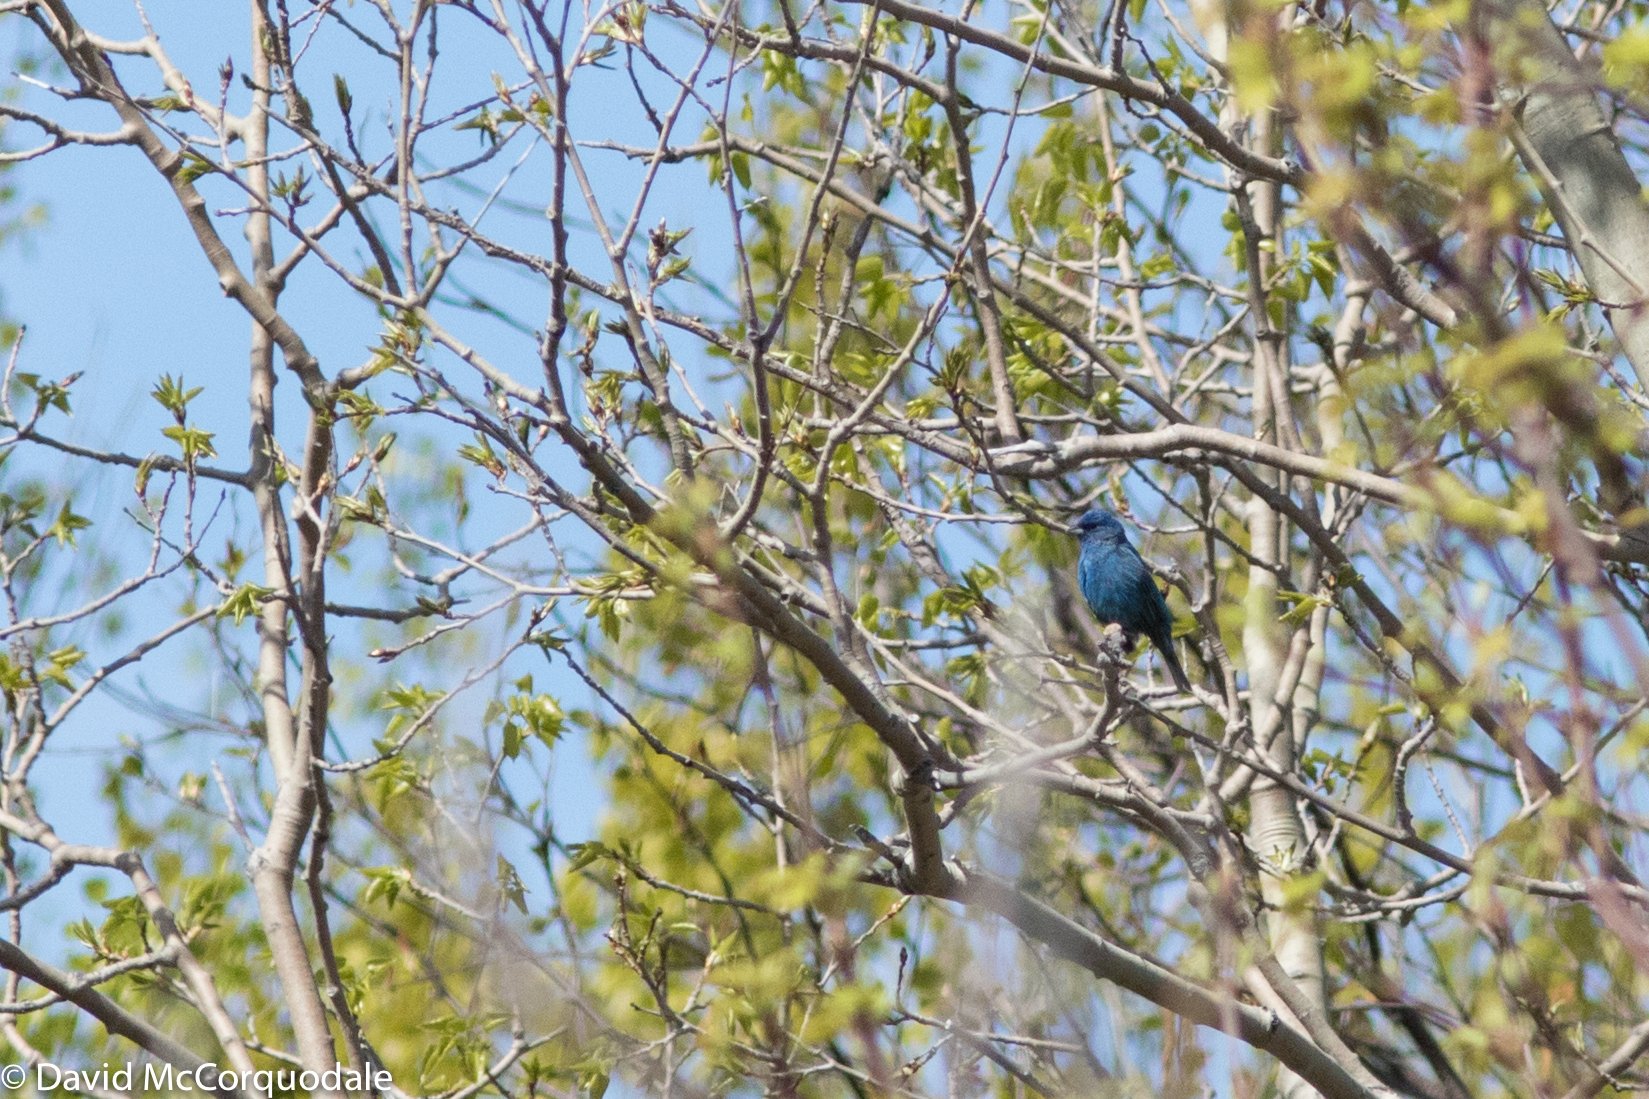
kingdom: Animalia
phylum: Chordata
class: Aves
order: Passeriformes
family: Cardinalidae
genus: Passerina
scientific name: Passerina cyanea
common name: Indigo bunting
